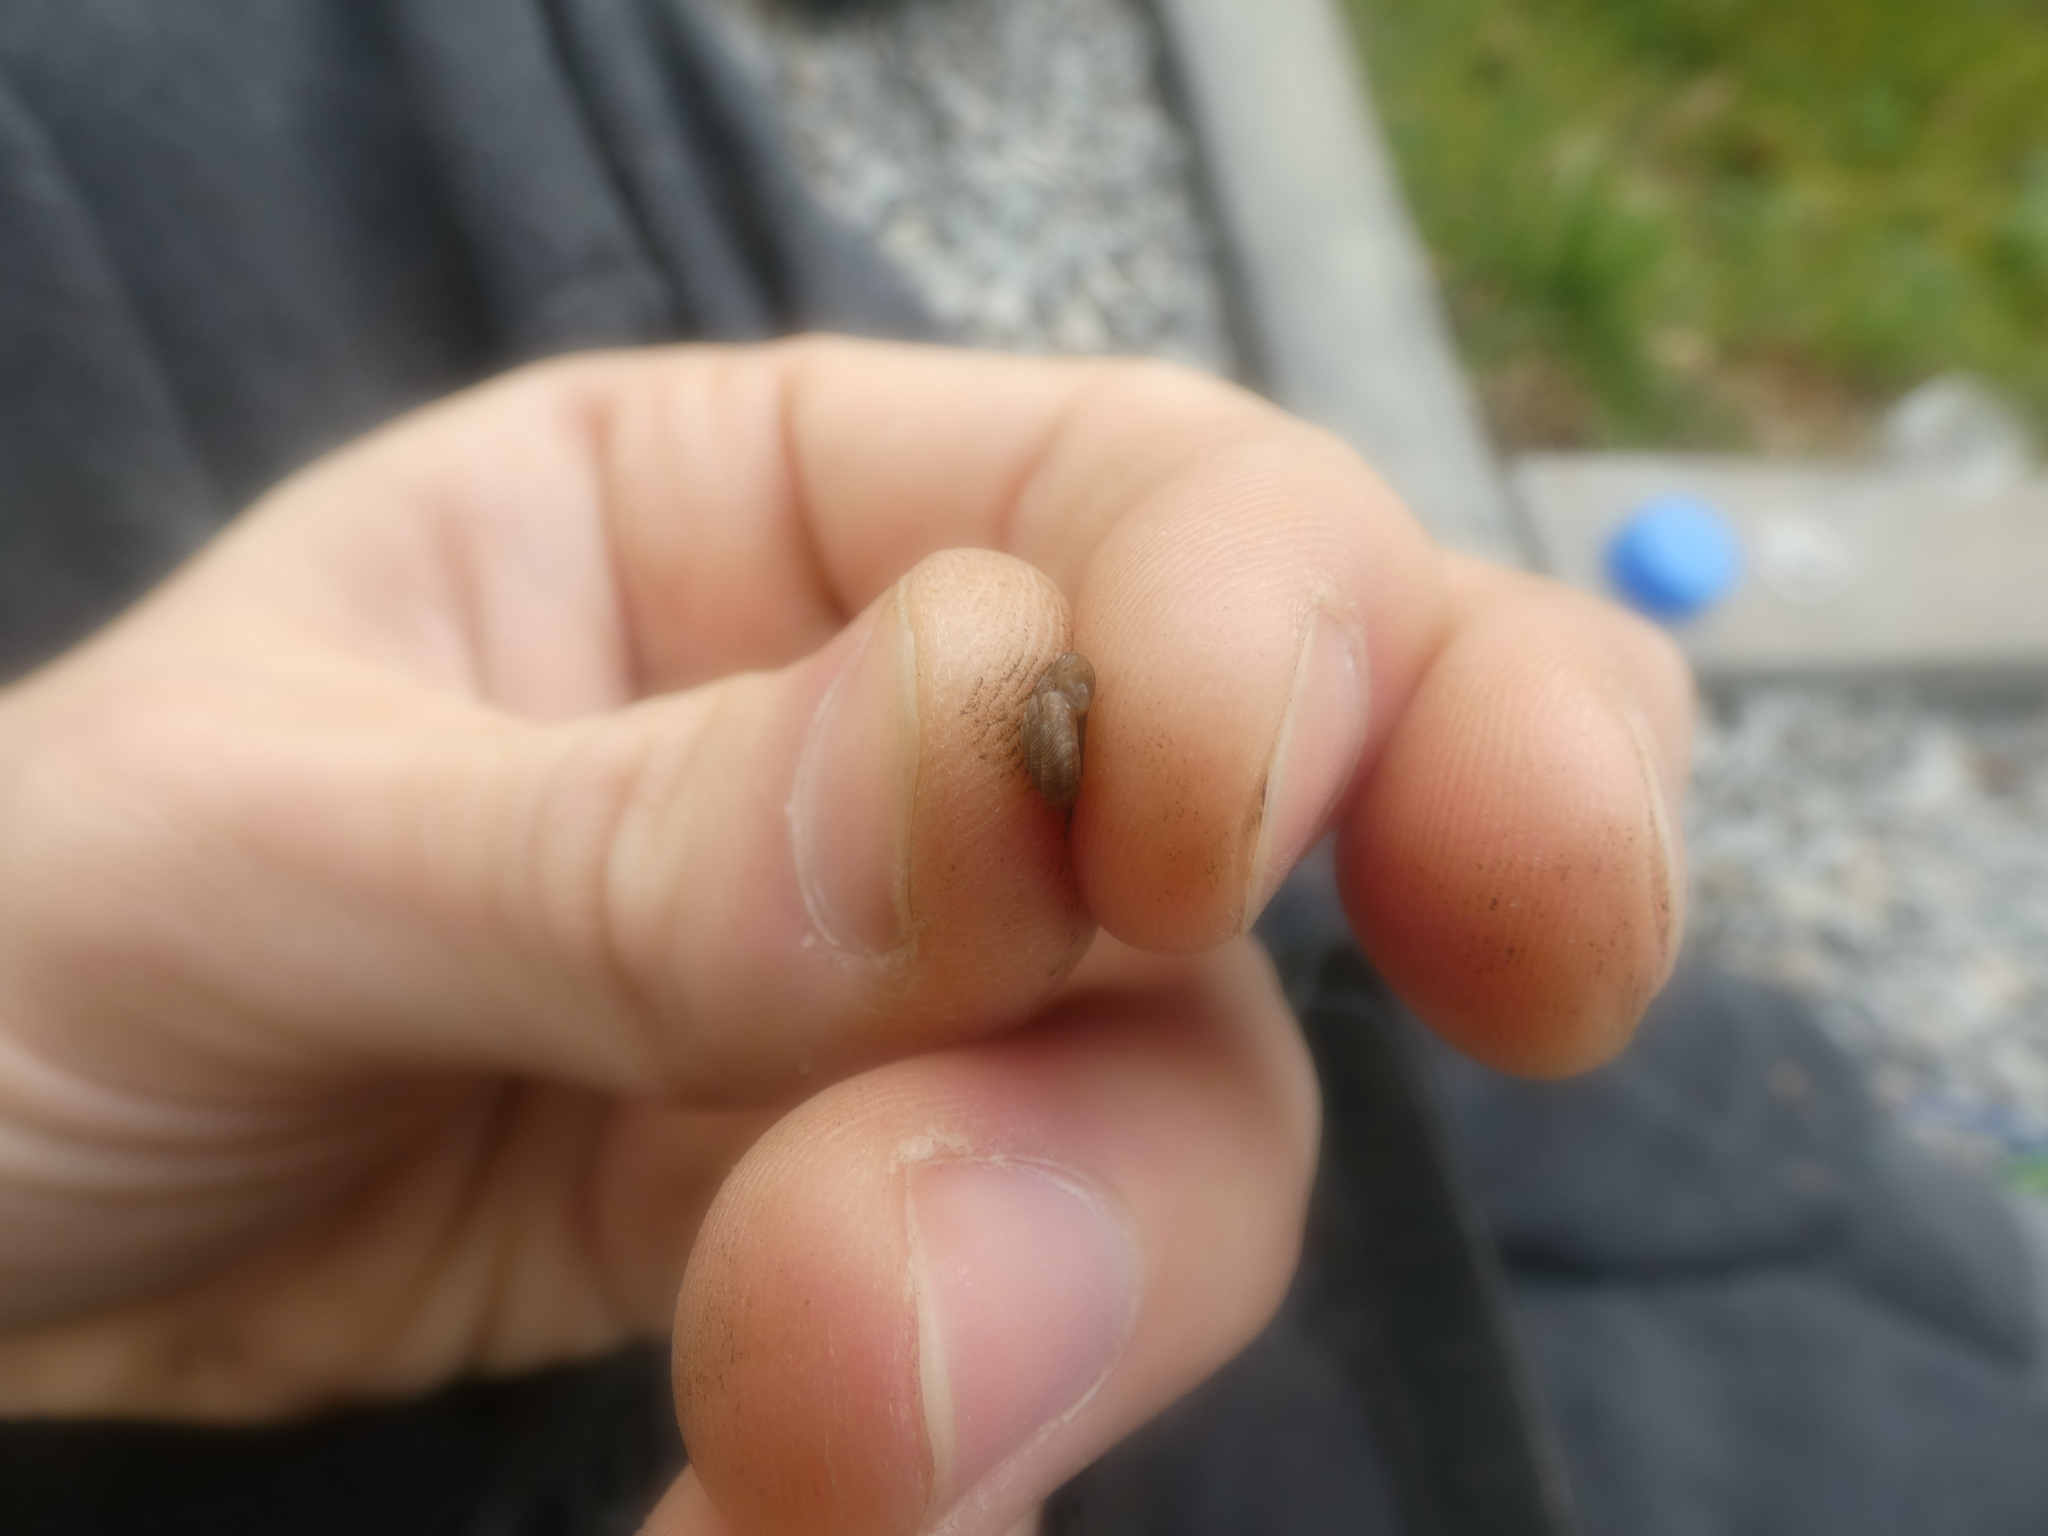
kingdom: Animalia
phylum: Mollusca
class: Gastropoda
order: Stylommatophora
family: Discidae
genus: Discus
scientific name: Discus rotundatus
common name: Rounded snail
